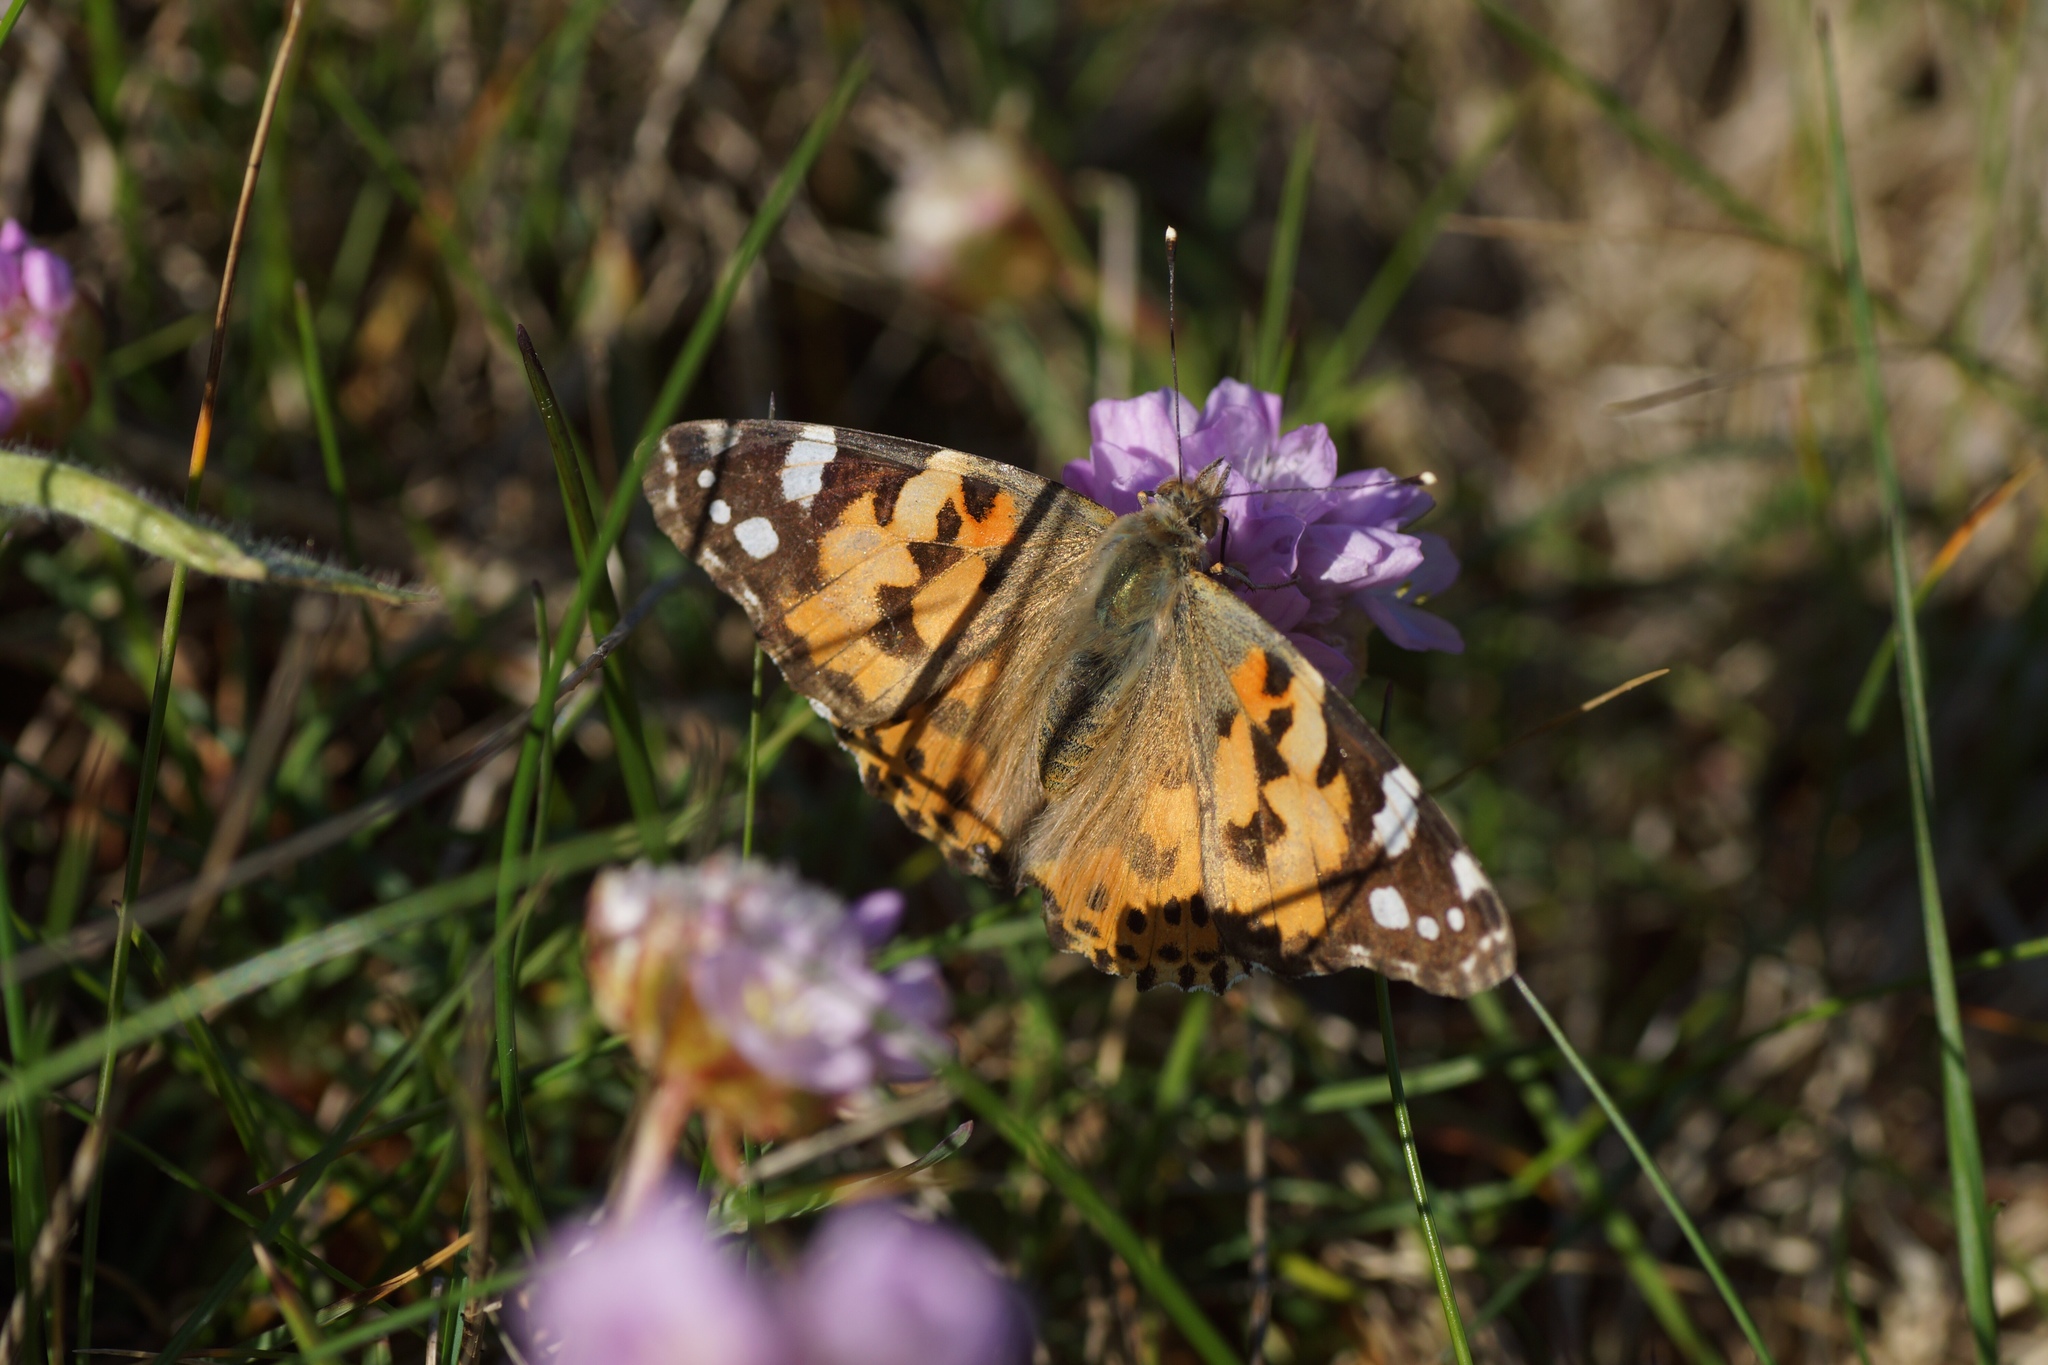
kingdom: Animalia
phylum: Arthropoda
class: Insecta
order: Lepidoptera
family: Nymphalidae
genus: Vanessa
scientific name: Vanessa cardui
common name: Painted lady
